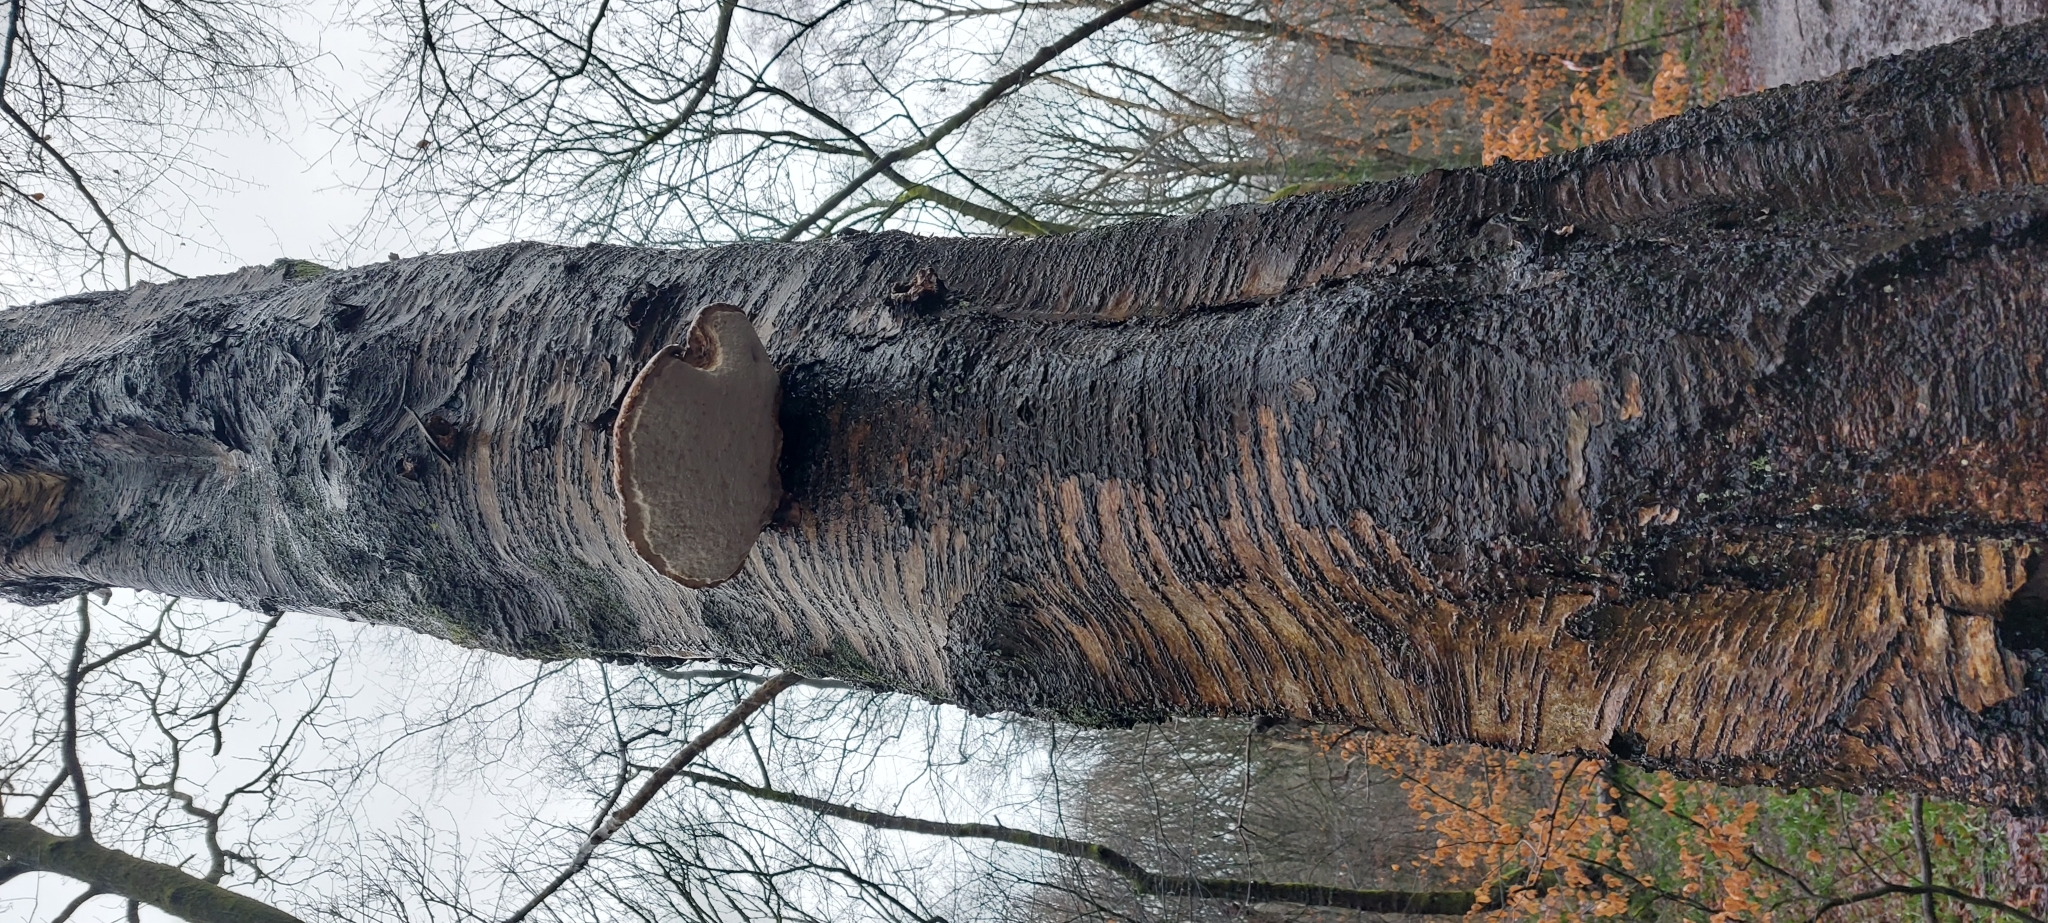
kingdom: Fungi
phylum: Basidiomycota
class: Agaricomycetes
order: Polyporales
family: Fomitopsidaceae
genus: Fomitopsis
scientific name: Fomitopsis betulina
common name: Birch polypore
